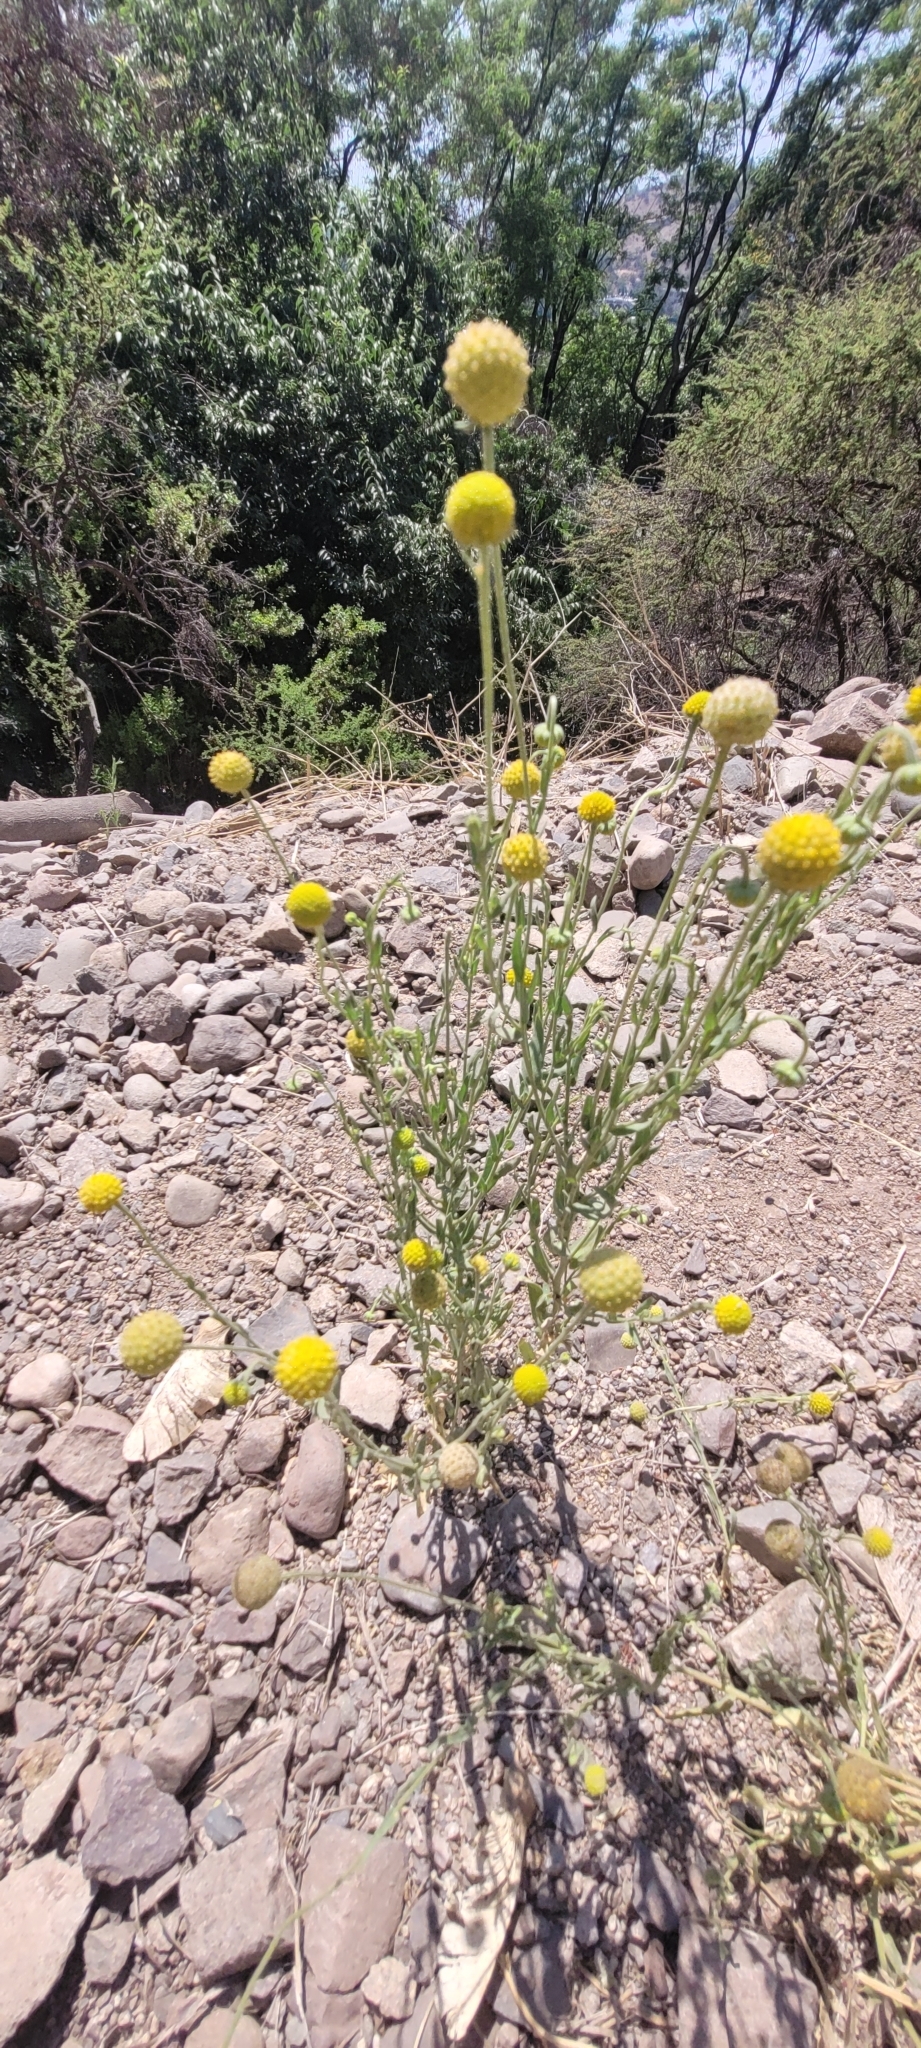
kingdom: Plantae
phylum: Tracheophyta
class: Magnoliopsida
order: Asterales
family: Asteraceae
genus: Helenium
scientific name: Helenium aromaticum
